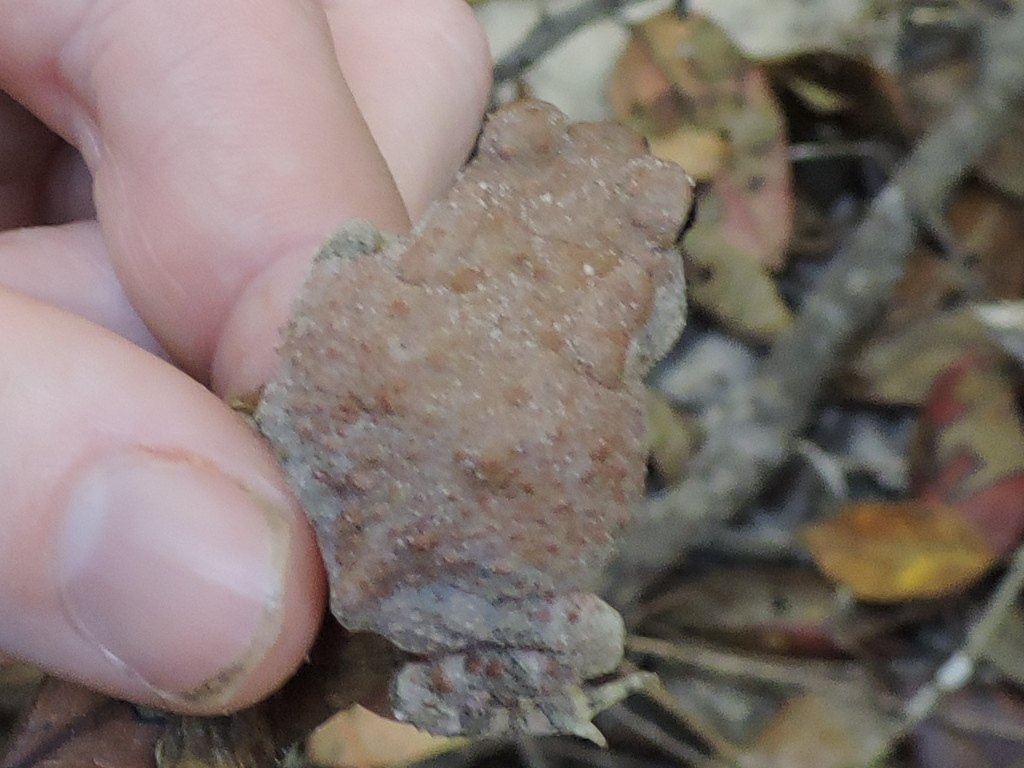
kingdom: Animalia
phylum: Chordata
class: Amphibia
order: Anura
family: Bufonidae
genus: Anaxyrus
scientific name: Anaxyrus fowleri
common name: Fowler's toad
